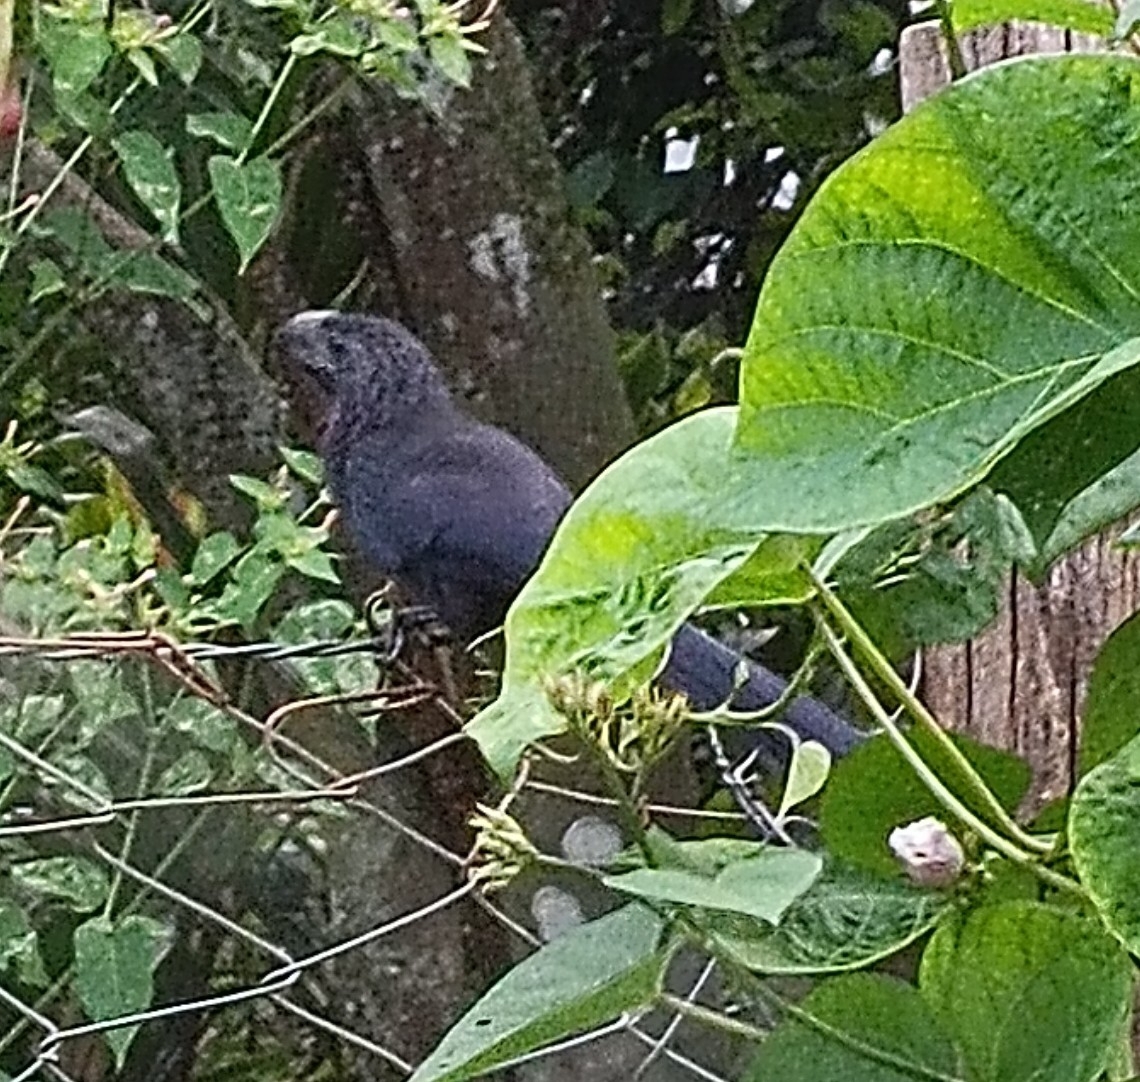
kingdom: Animalia
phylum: Chordata
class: Aves
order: Cuculiformes
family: Cuculidae
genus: Crotophaga
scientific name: Crotophaga sulcirostris
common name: Groove-billed ani
